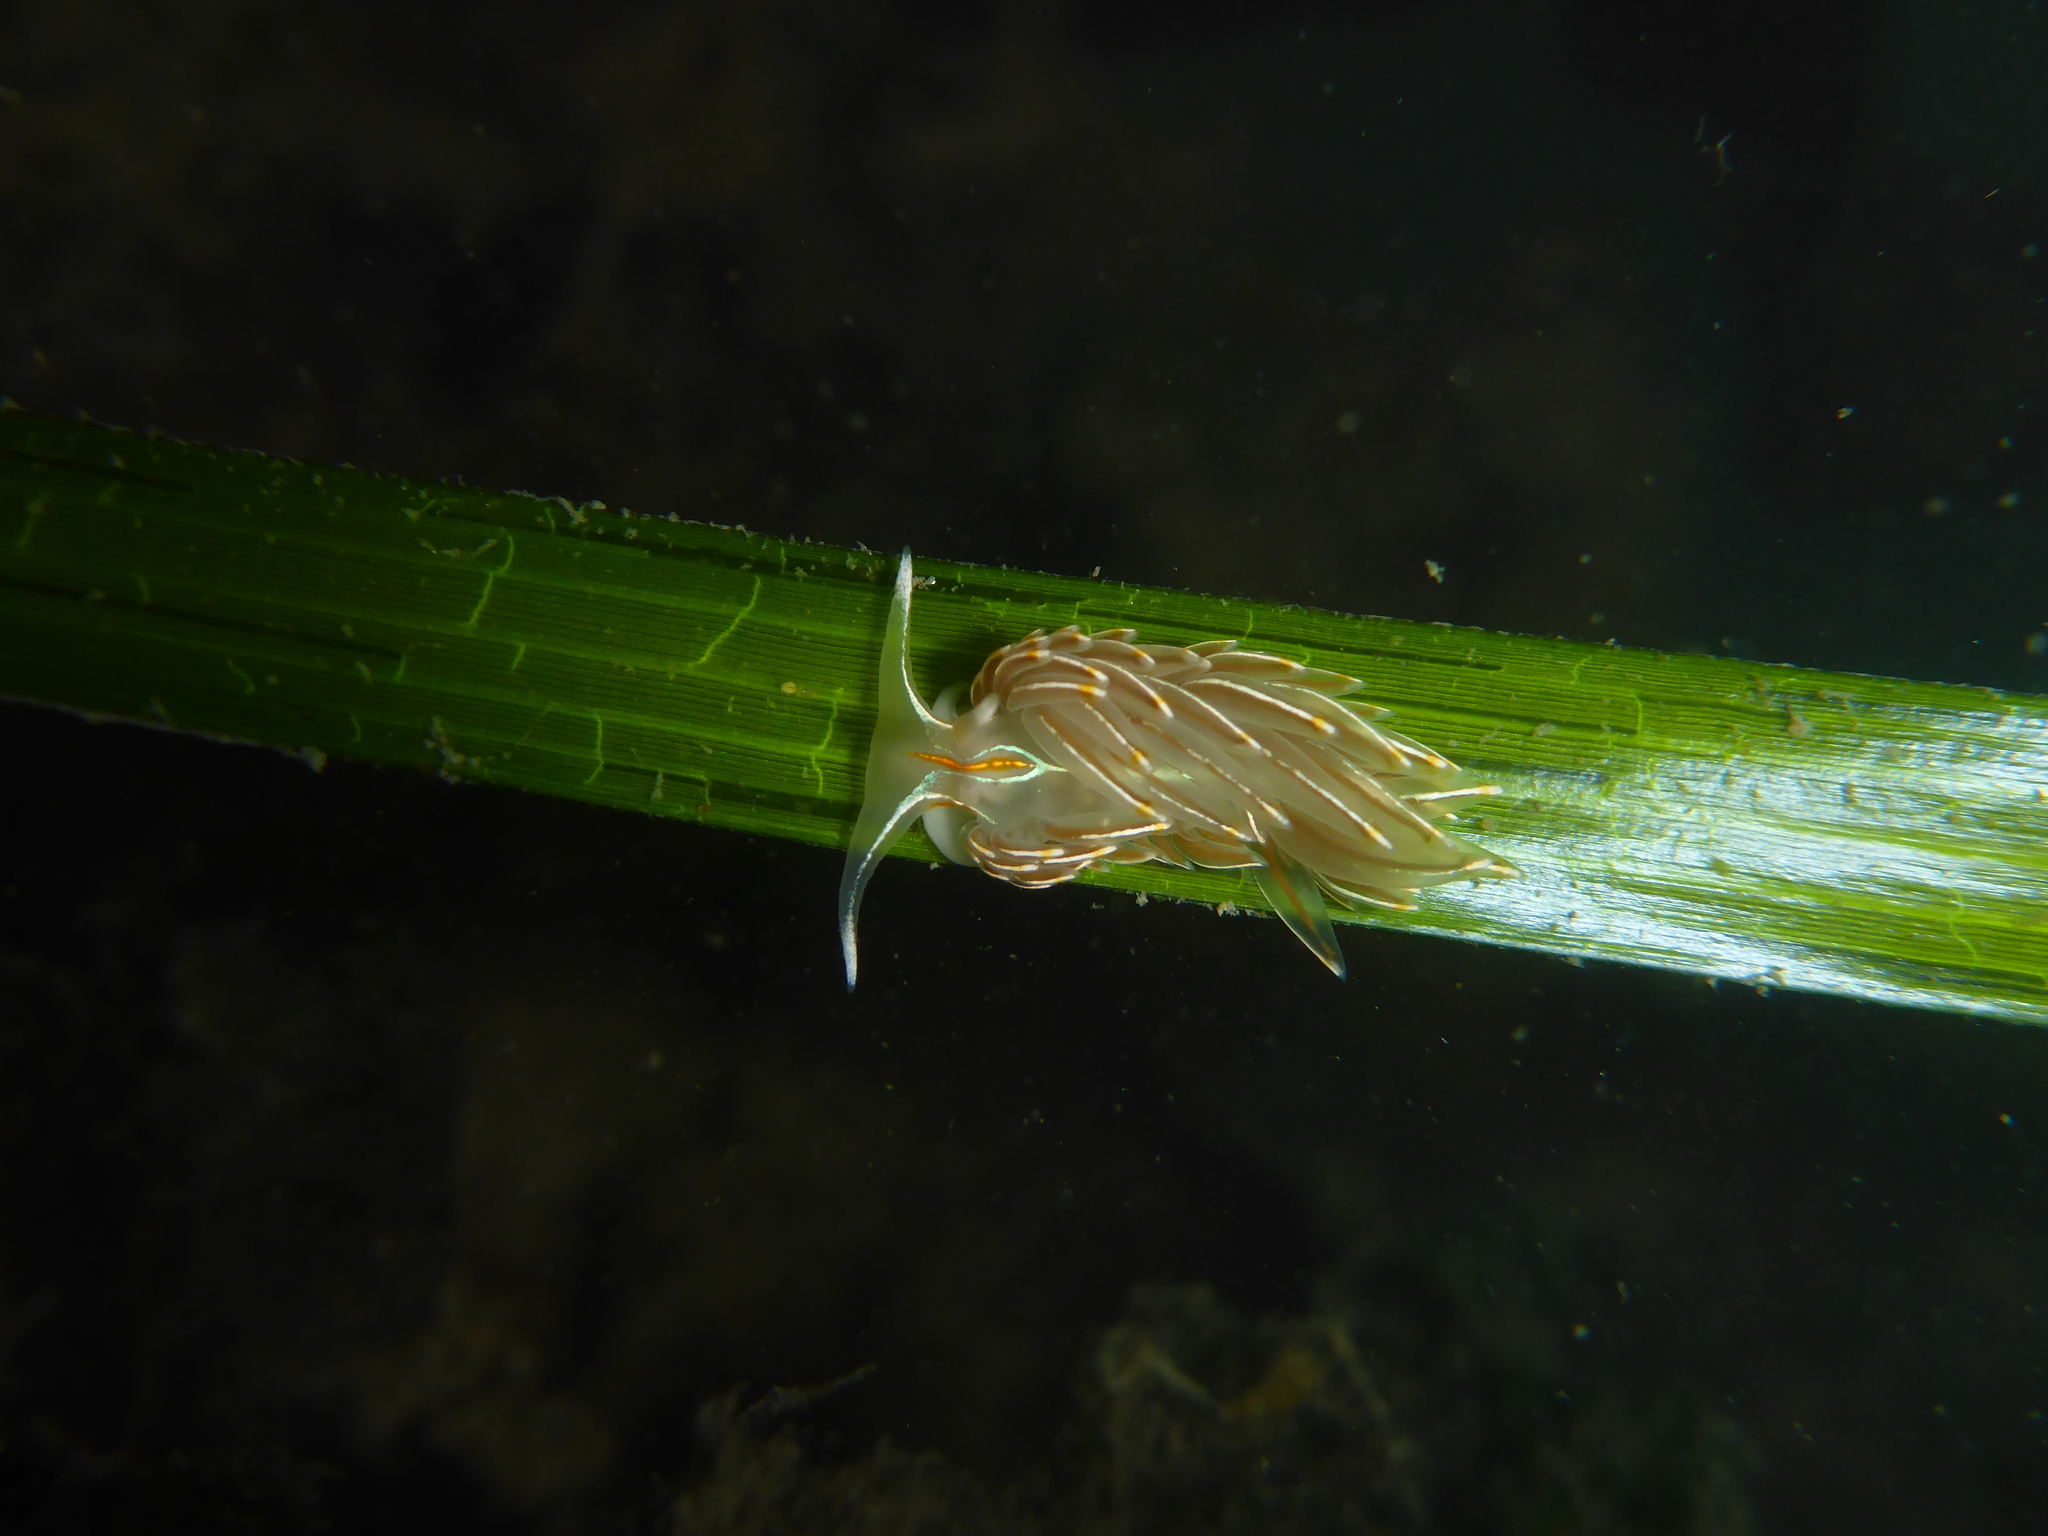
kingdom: Animalia
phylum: Mollusca
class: Gastropoda
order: Nudibranchia
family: Myrrhinidae
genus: Hermissenda
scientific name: Hermissenda crassicornis
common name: Hermissenda
